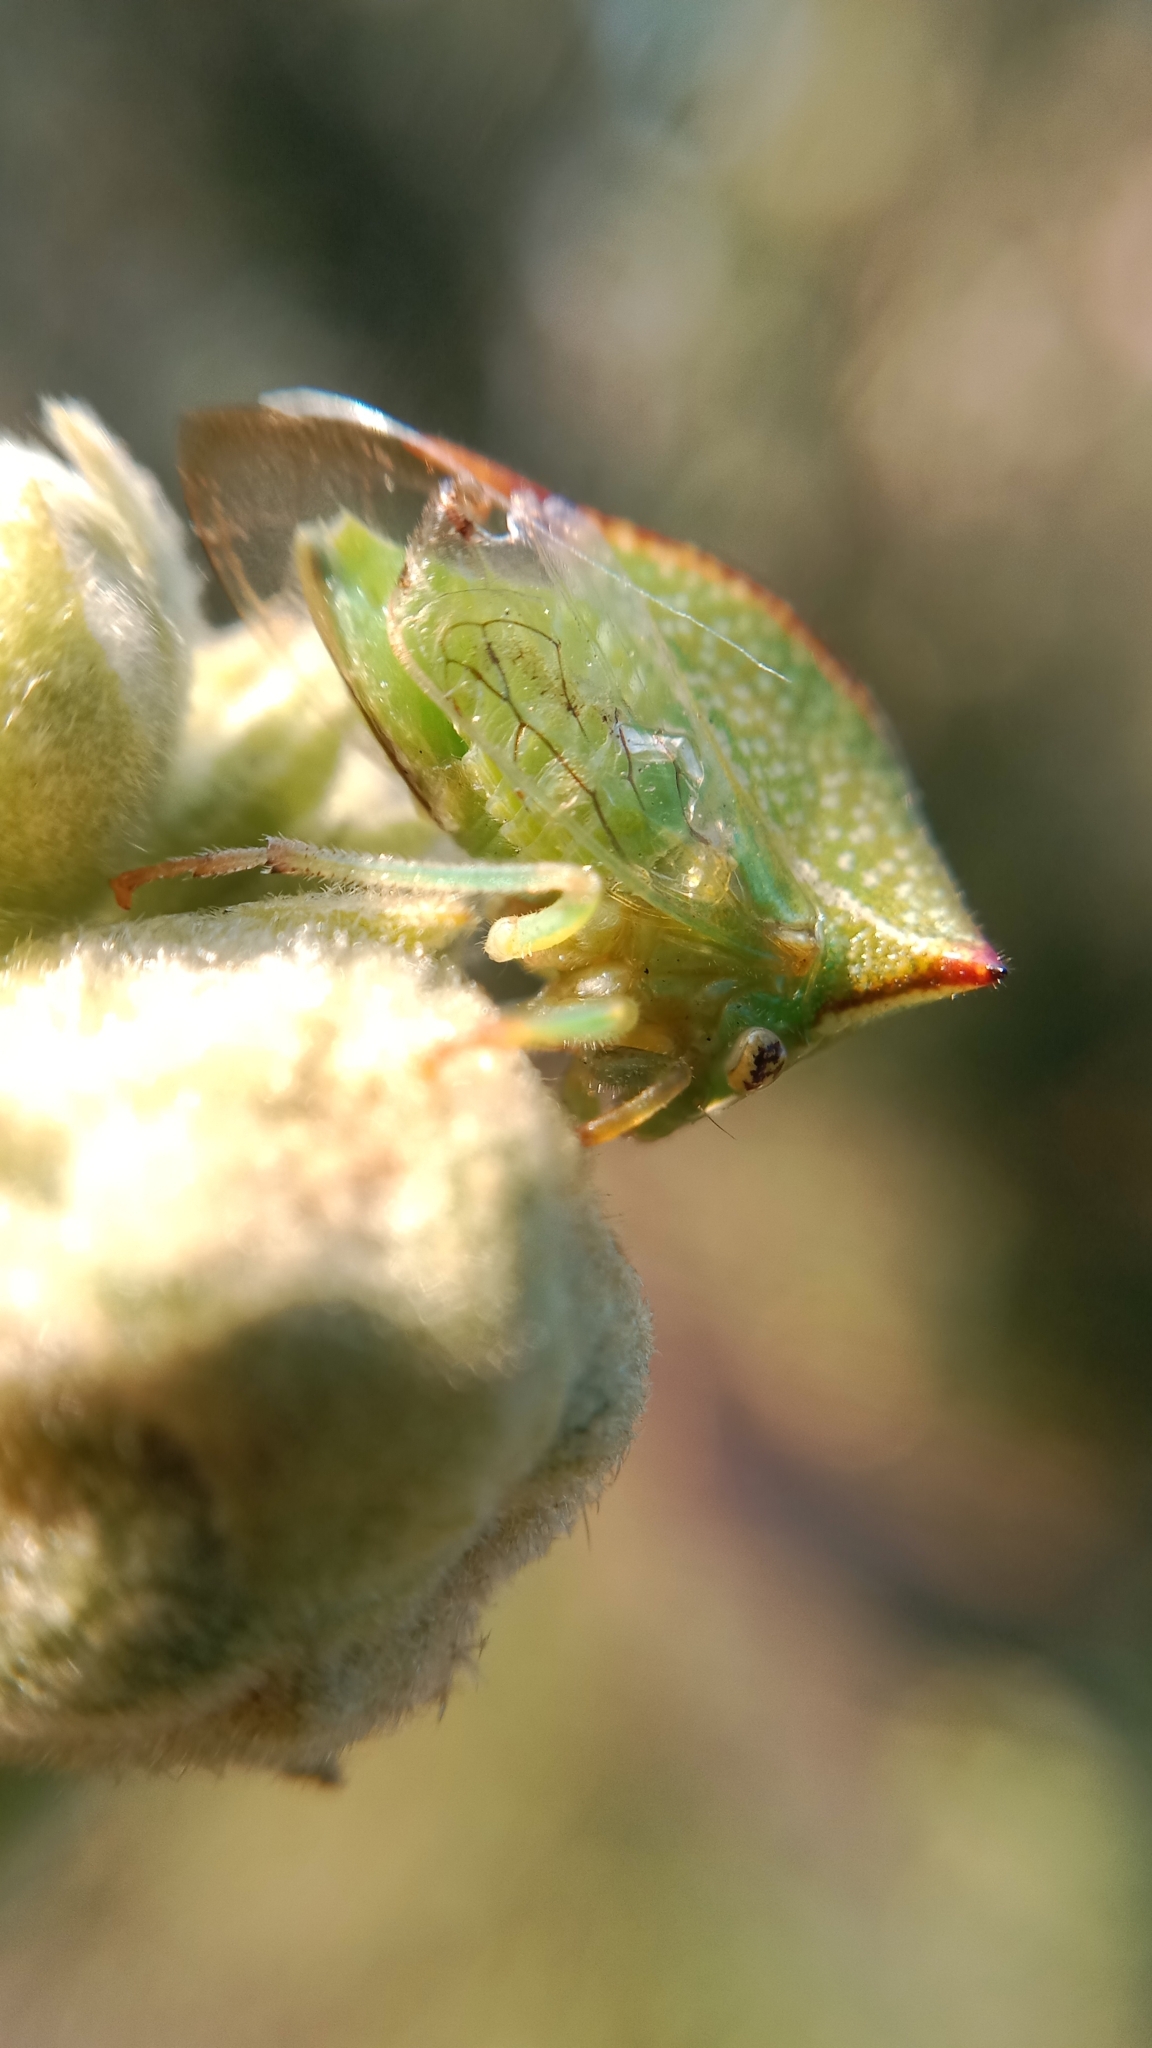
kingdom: Animalia
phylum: Arthropoda
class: Insecta
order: Hemiptera
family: Membracidae
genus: Stictocephala
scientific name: Stictocephala bisonia
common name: American buffalo treehopper
